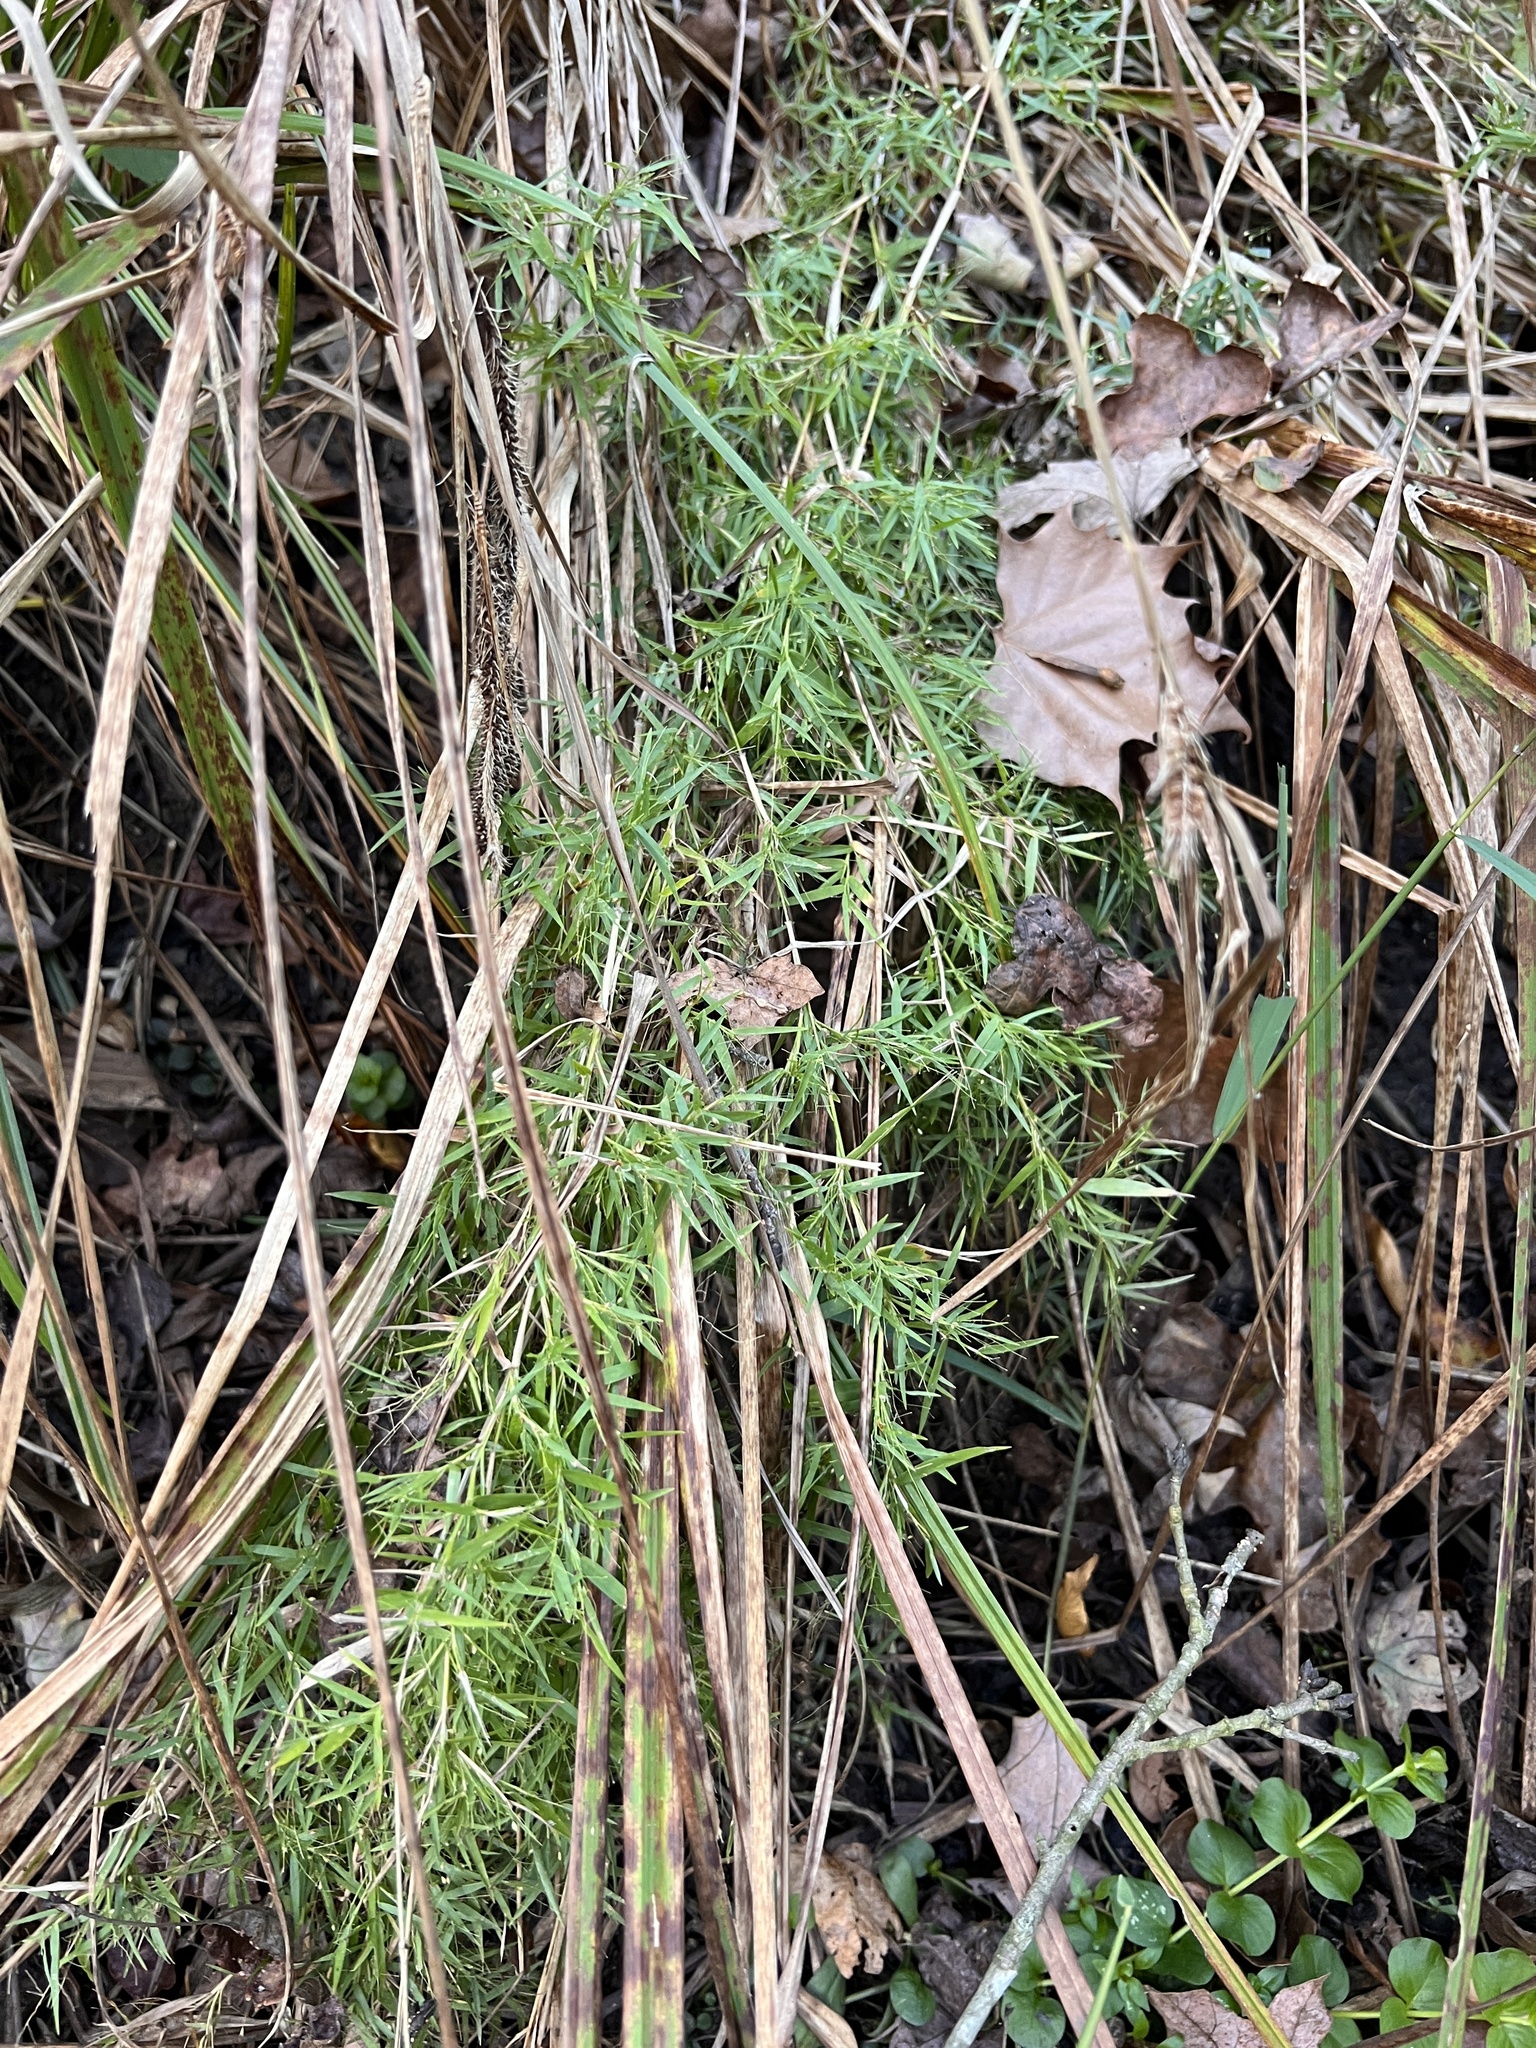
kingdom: Plantae
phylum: Tracheophyta
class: Liliopsida
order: Poales
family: Poaceae
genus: Dichanthelium
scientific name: Dichanthelium microcarpon
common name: Small-fruited witchgrass
